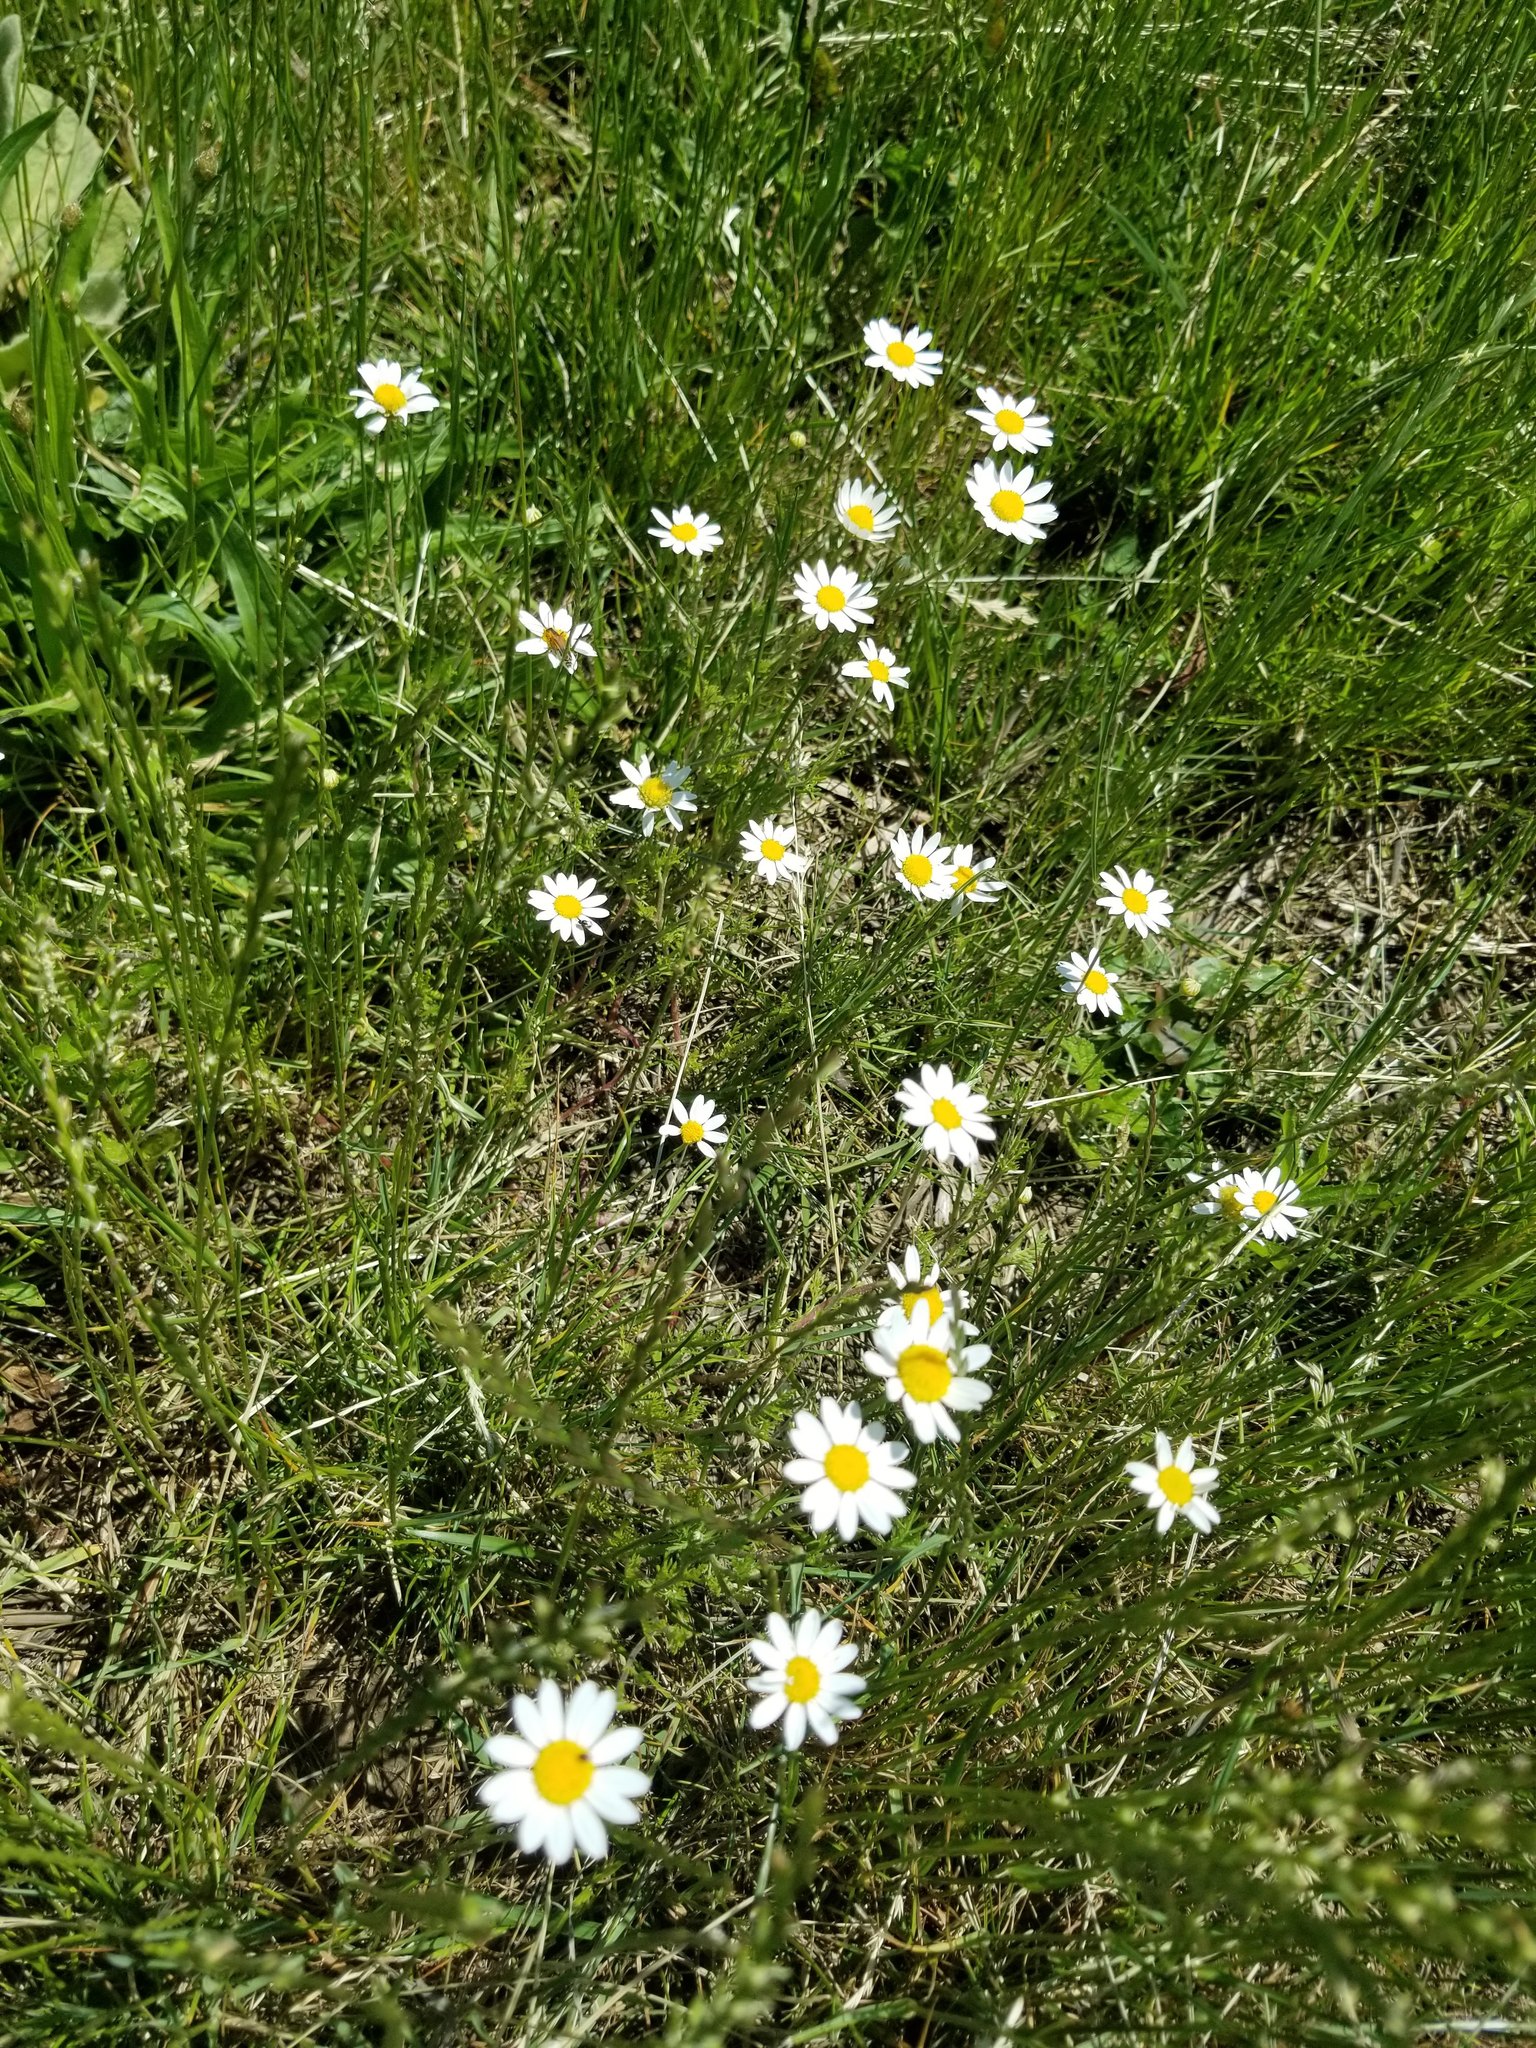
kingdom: Plantae
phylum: Tracheophyta
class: Magnoliopsida
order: Asterales
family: Asteraceae
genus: Leucanthemum
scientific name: Leucanthemum vulgare
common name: Oxeye daisy
